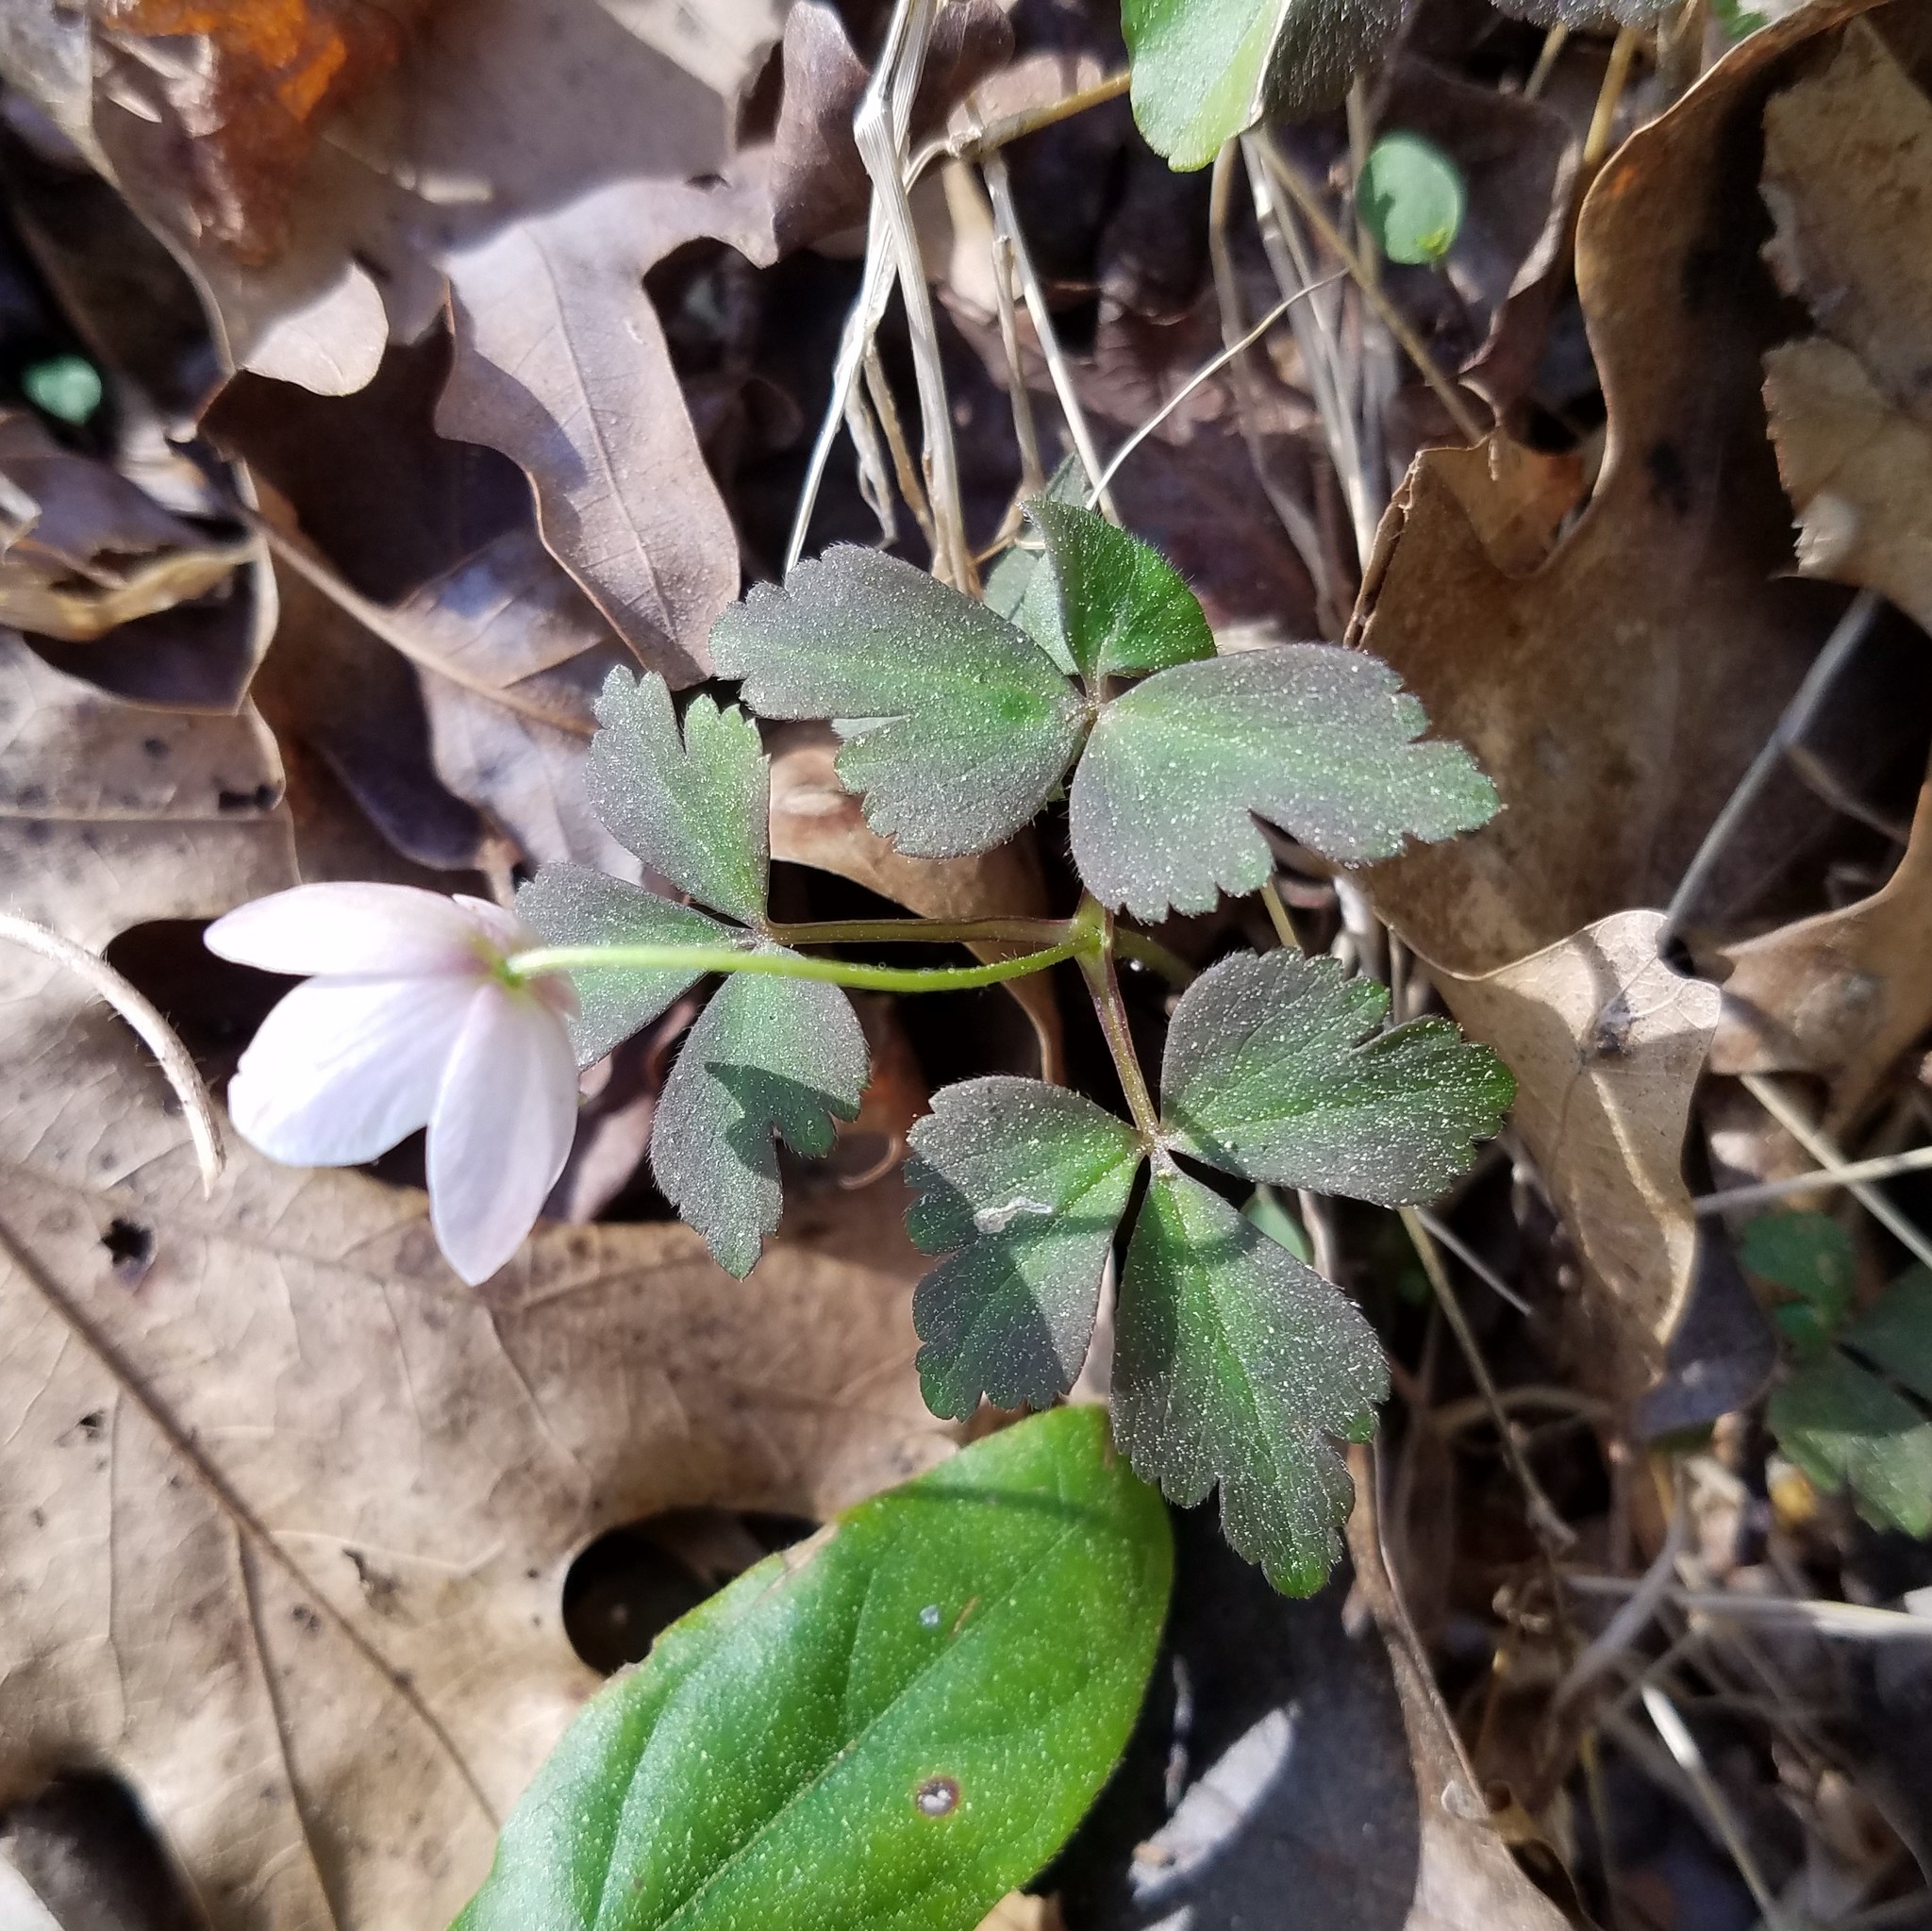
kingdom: Plantae
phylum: Tracheophyta
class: Magnoliopsida
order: Ranunculales
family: Ranunculaceae
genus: Anemone
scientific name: Anemone quinquefolia
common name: Wood anemone
